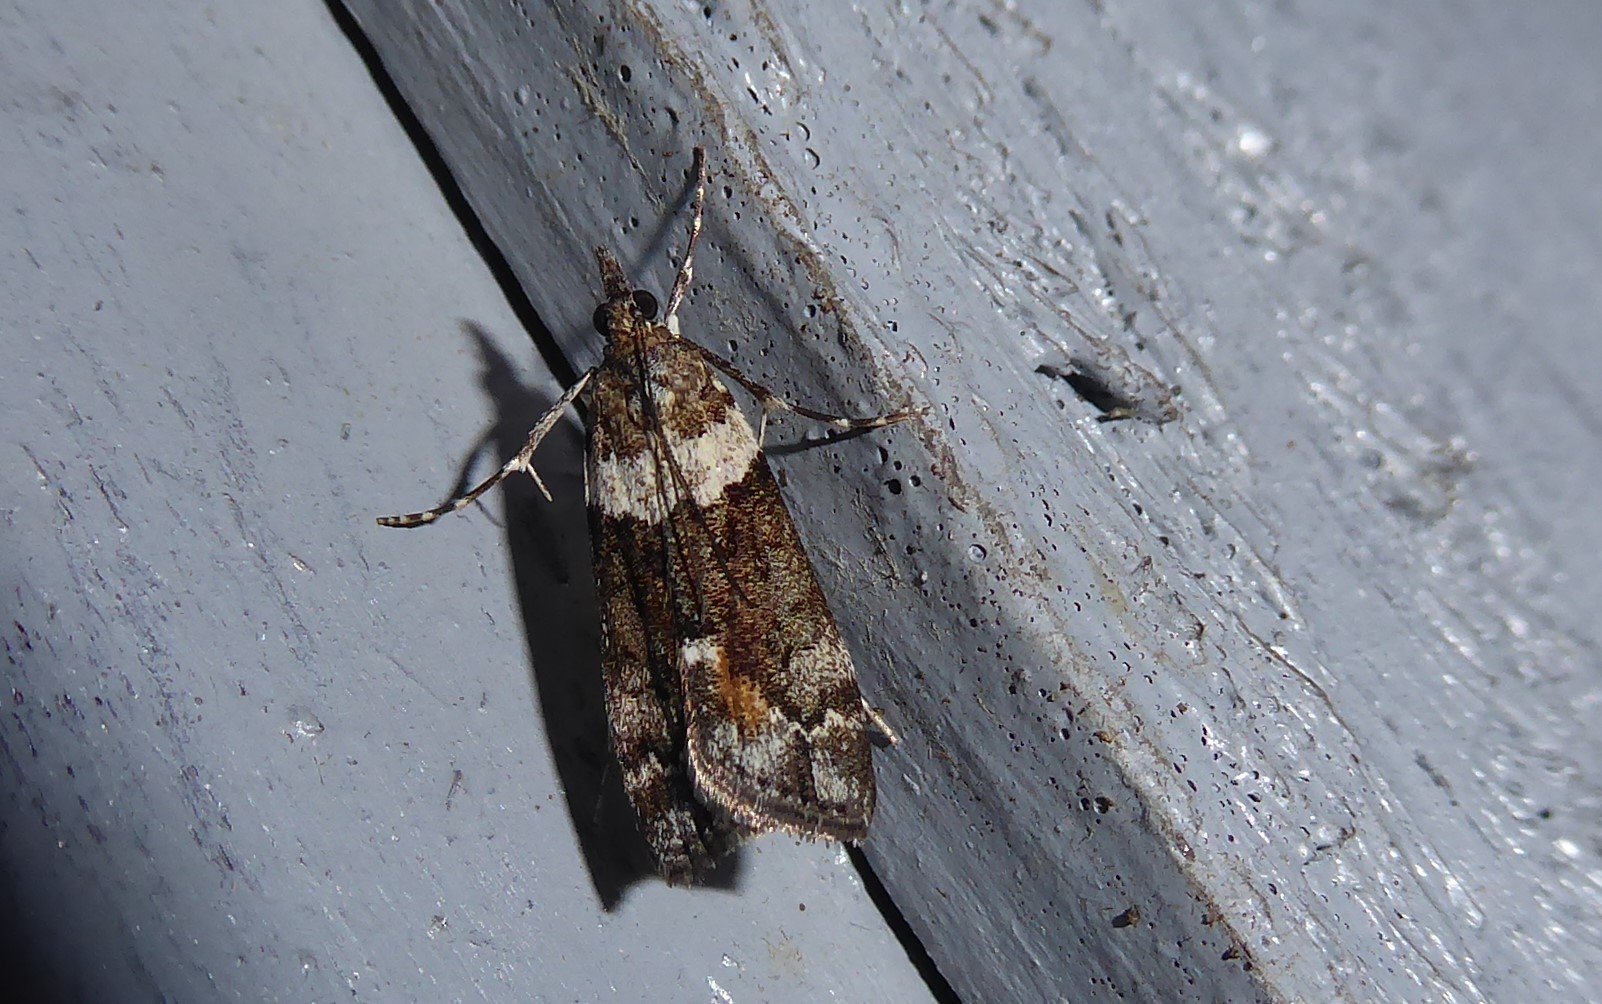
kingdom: Animalia
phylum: Arthropoda
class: Insecta
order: Lepidoptera
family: Crambidae
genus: Eudonia
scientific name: Eudonia submarginalis
